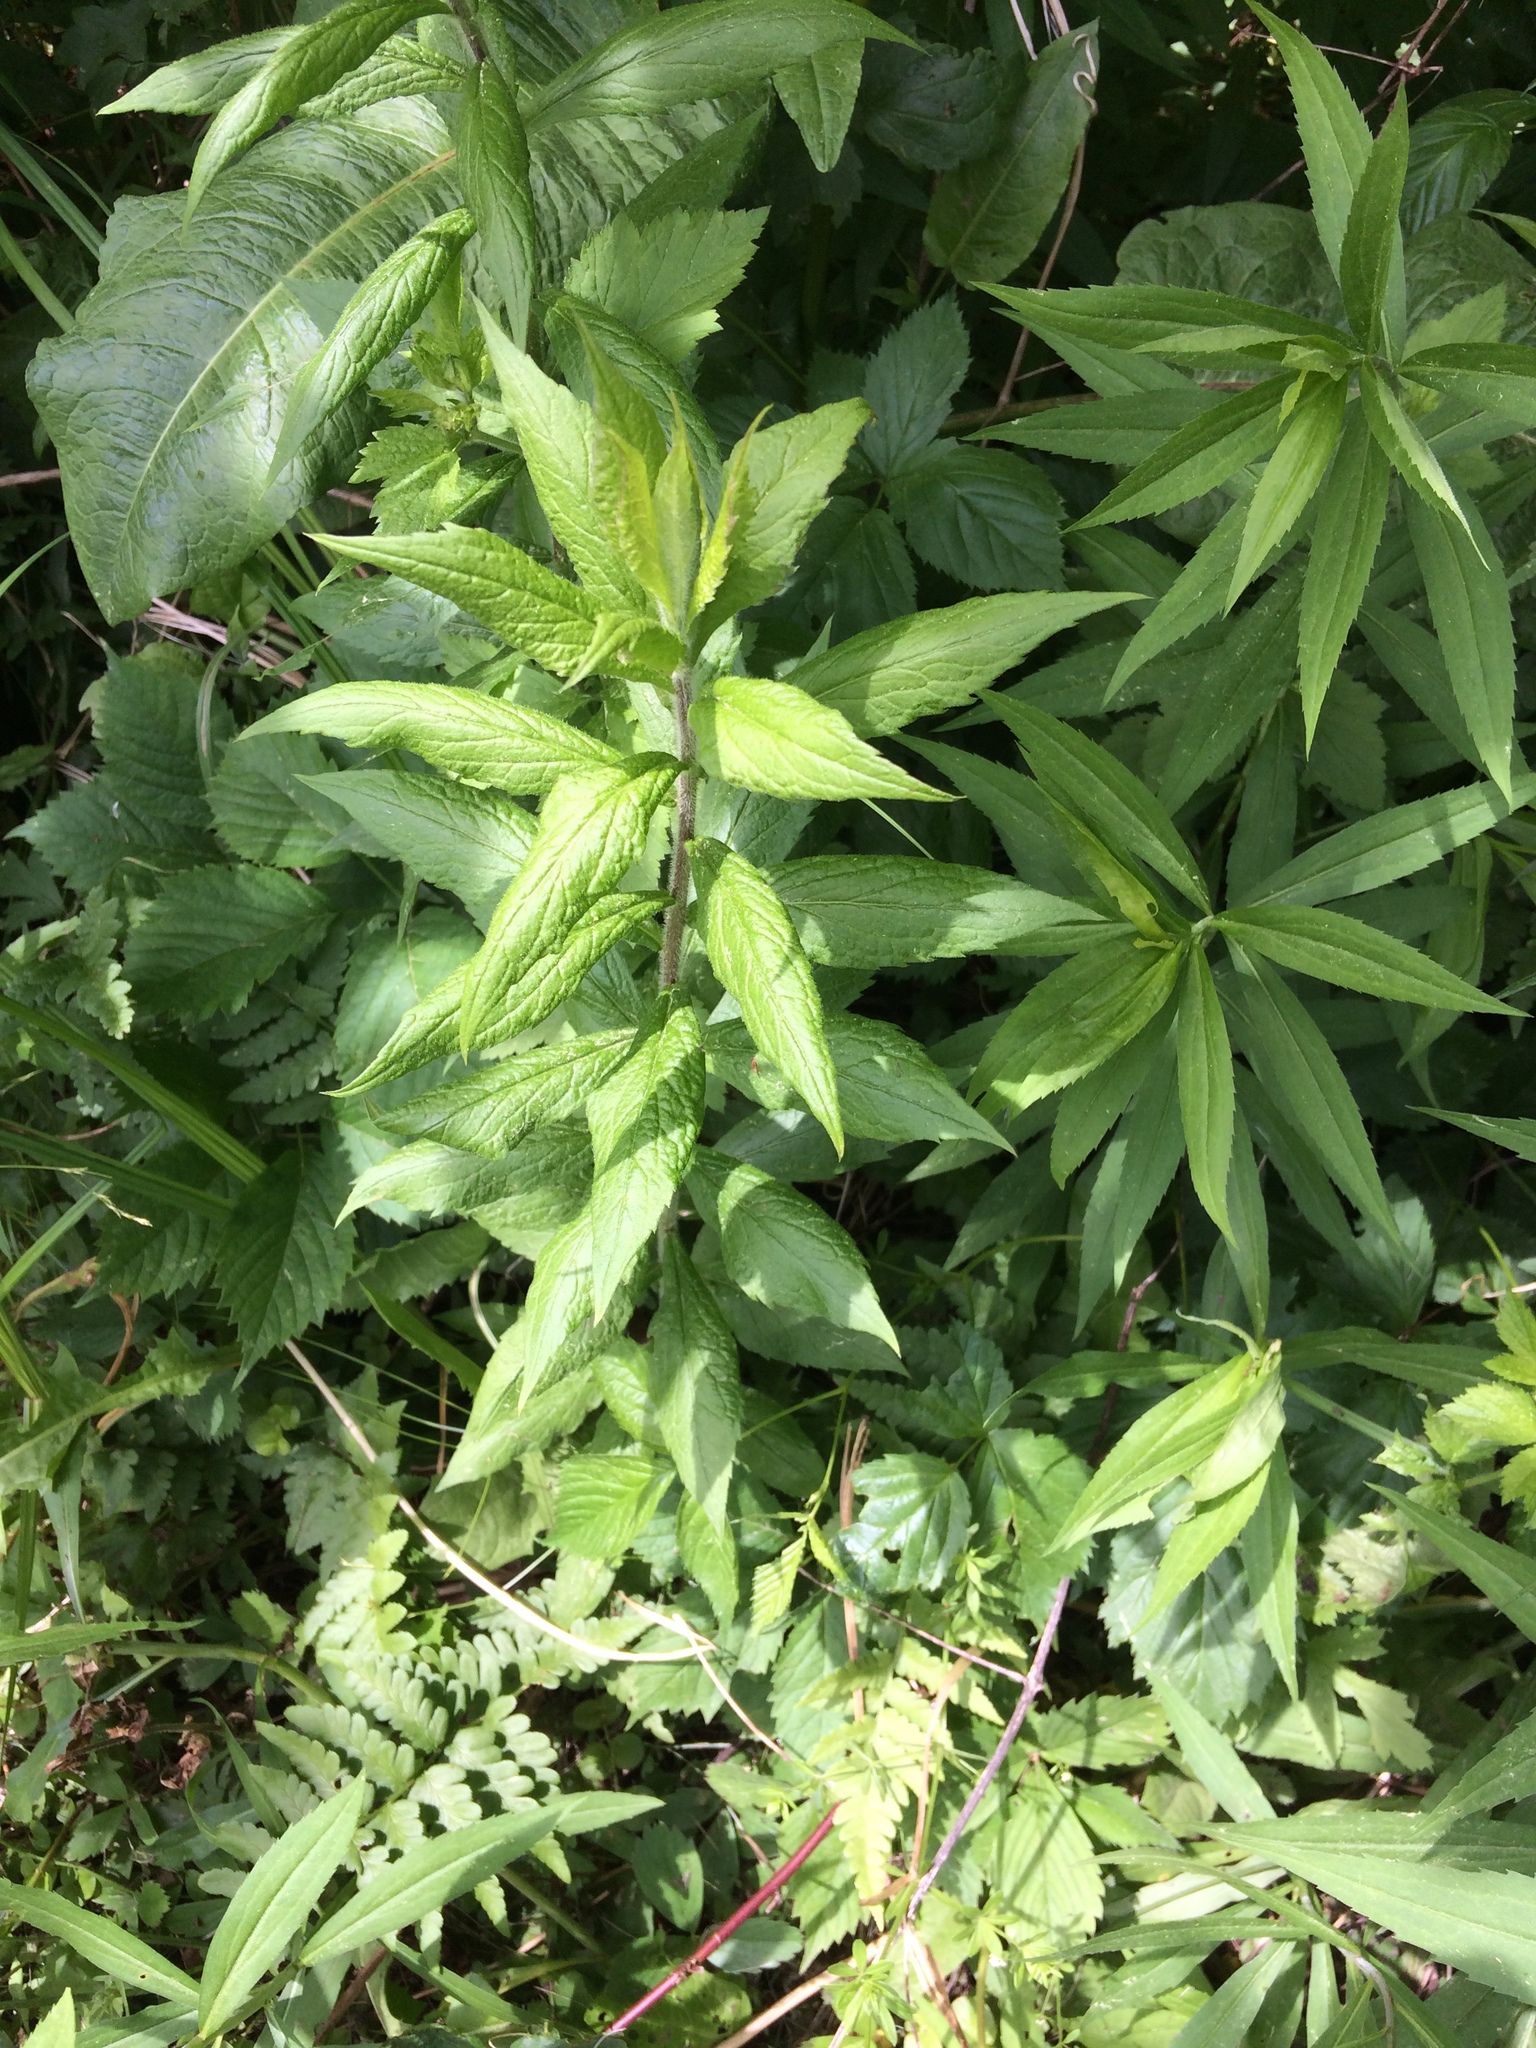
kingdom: Plantae
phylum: Tracheophyta
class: Magnoliopsida
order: Asterales
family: Asteraceae
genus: Solidago
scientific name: Solidago rugosa
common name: Rough-stemmed goldenrod
